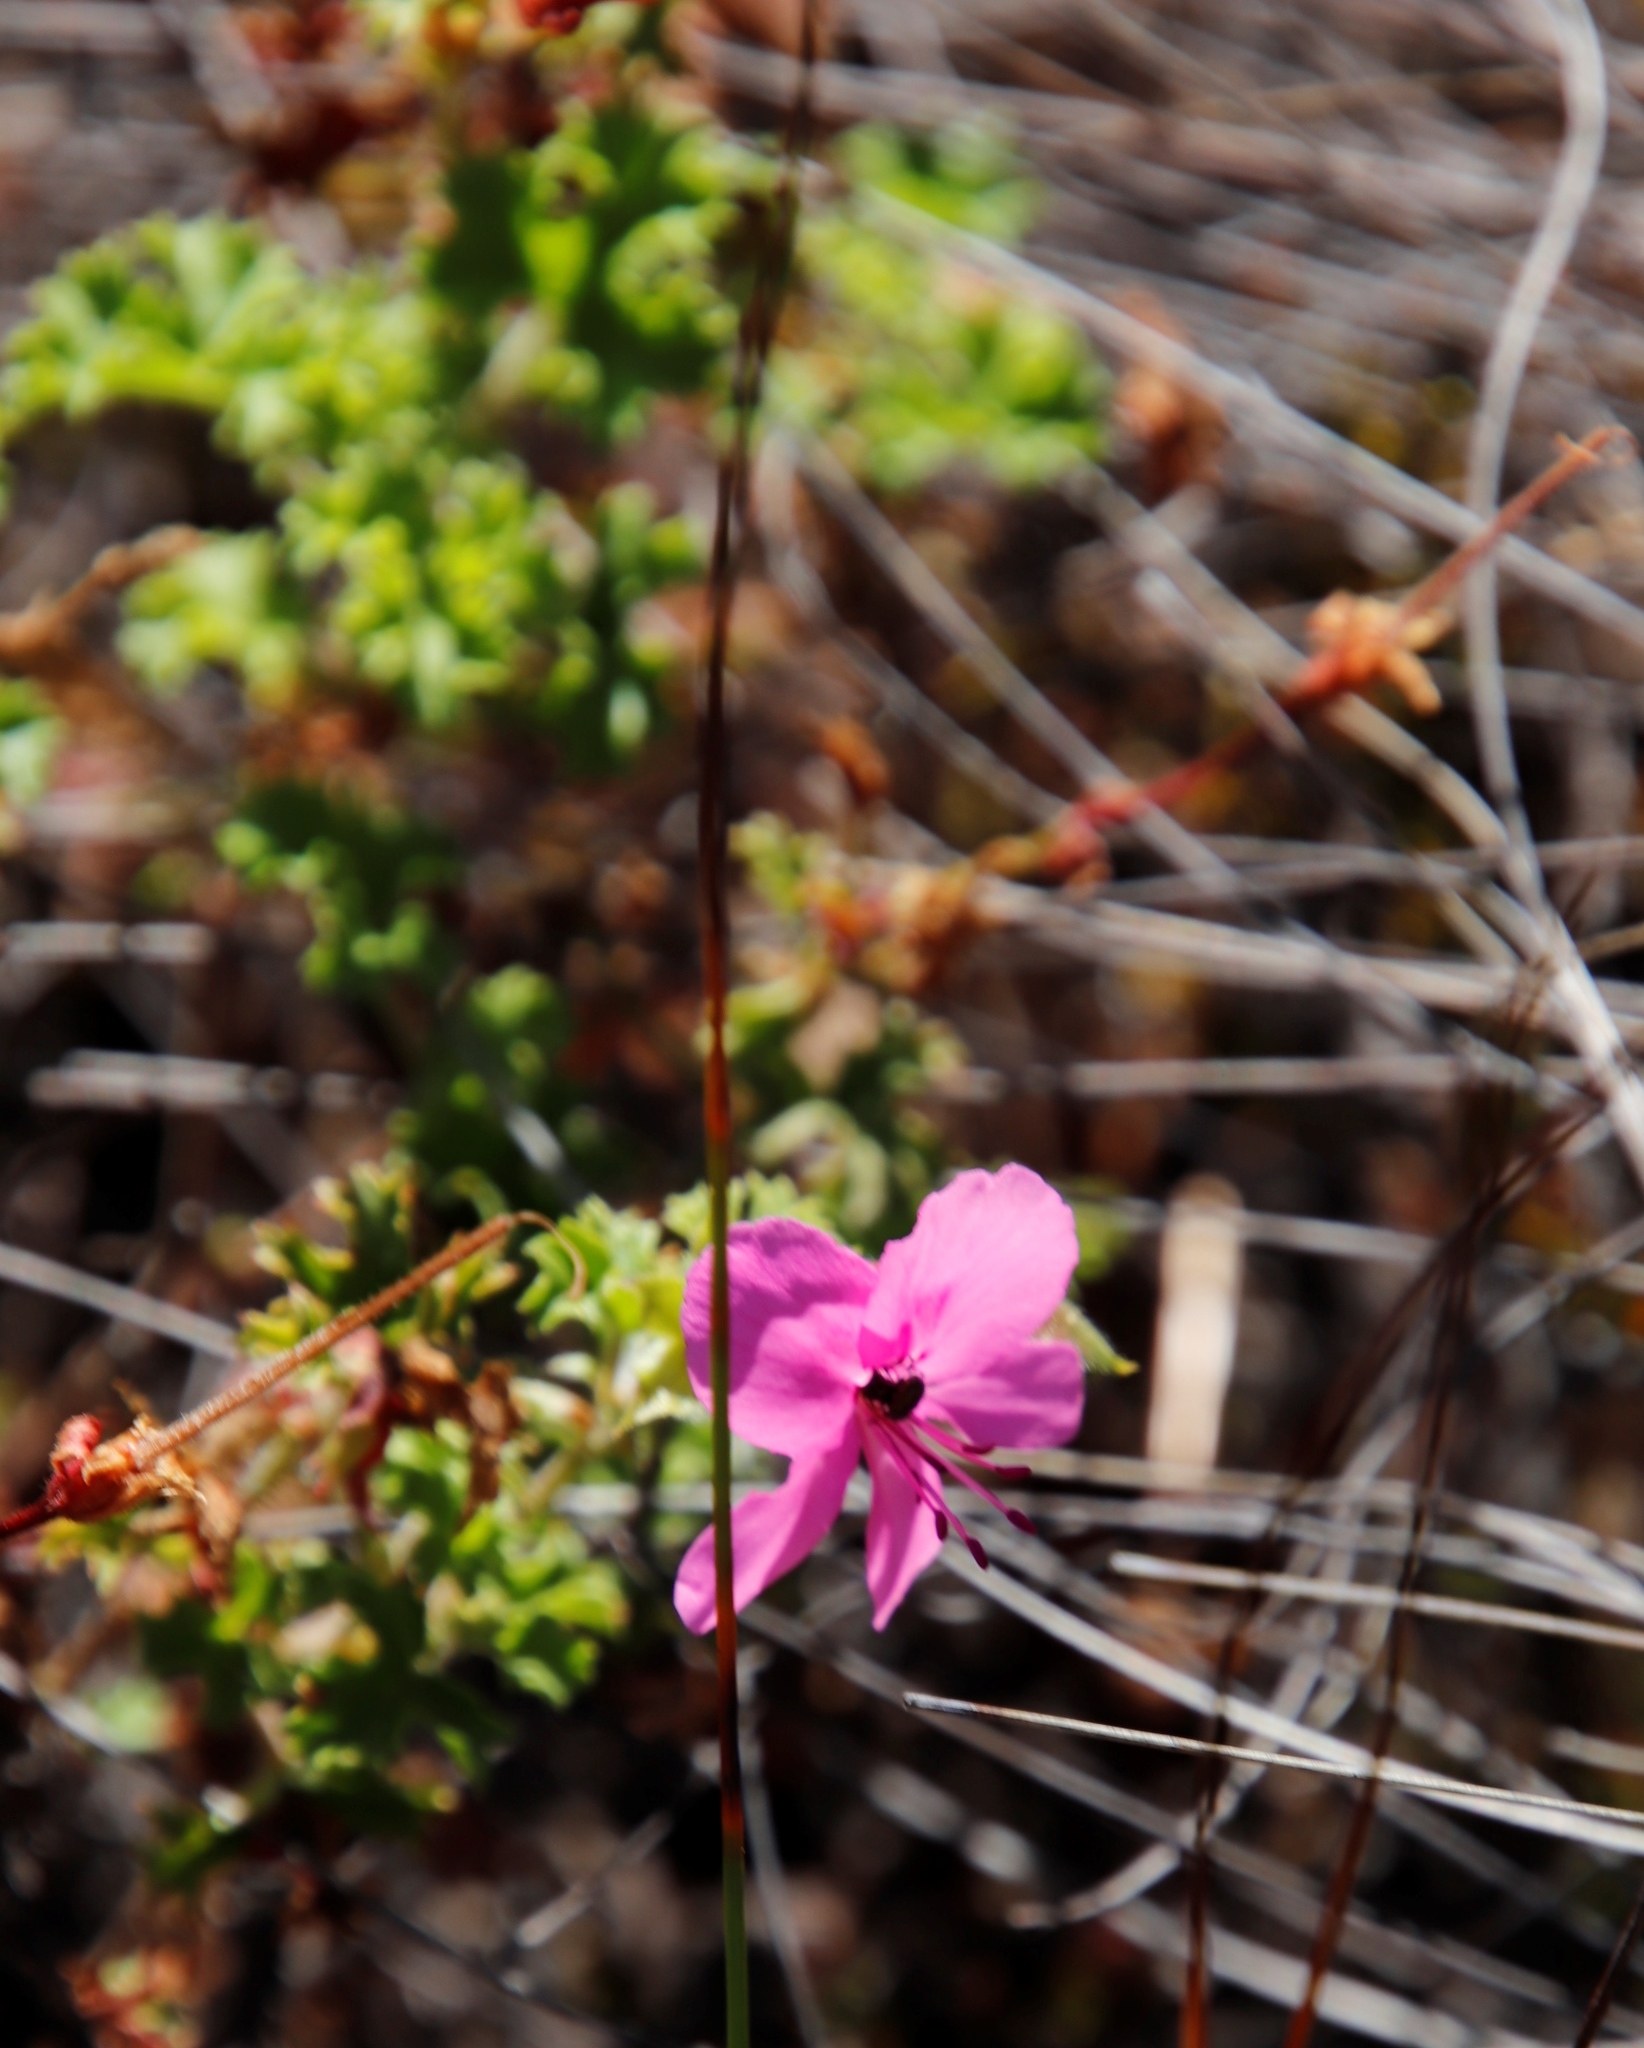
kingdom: Plantae
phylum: Tracheophyta
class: Magnoliopsida
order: Geraniales
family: Geraniaceae
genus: Pelargonium
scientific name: Pelargonium englerianum
